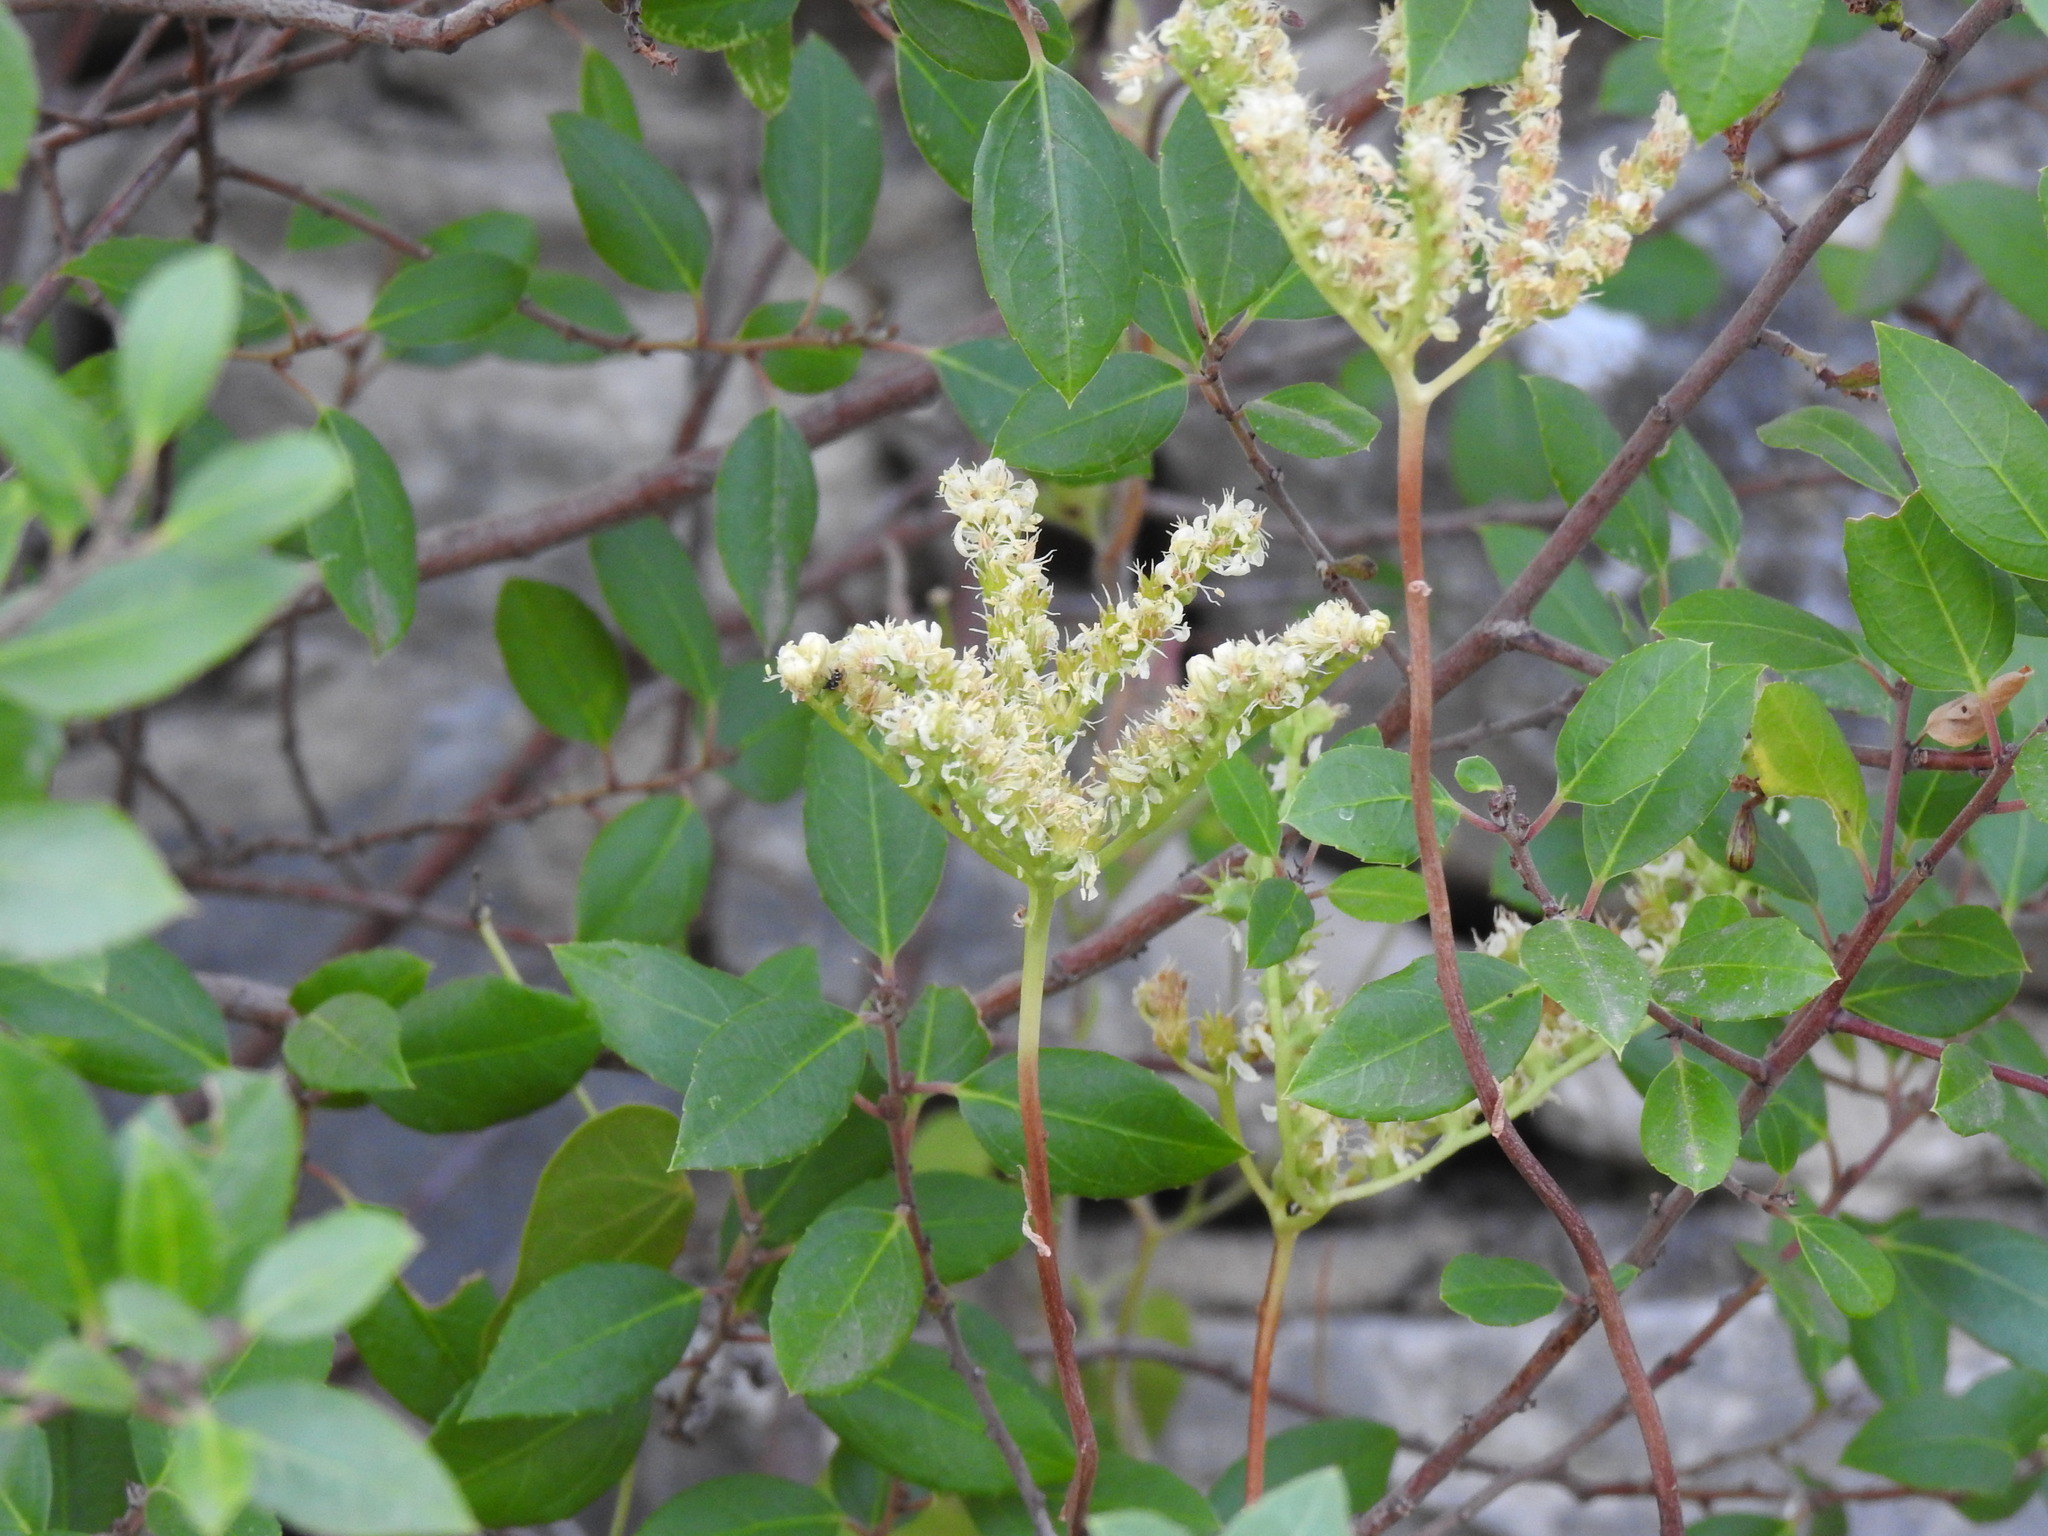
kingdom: Plantae
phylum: Tracheophyta
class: Magnoliopsida
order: Saxifragales
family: Crassulaceae
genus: Petrosedum
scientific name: Petrosedum sediforme
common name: Pale stonecrop
